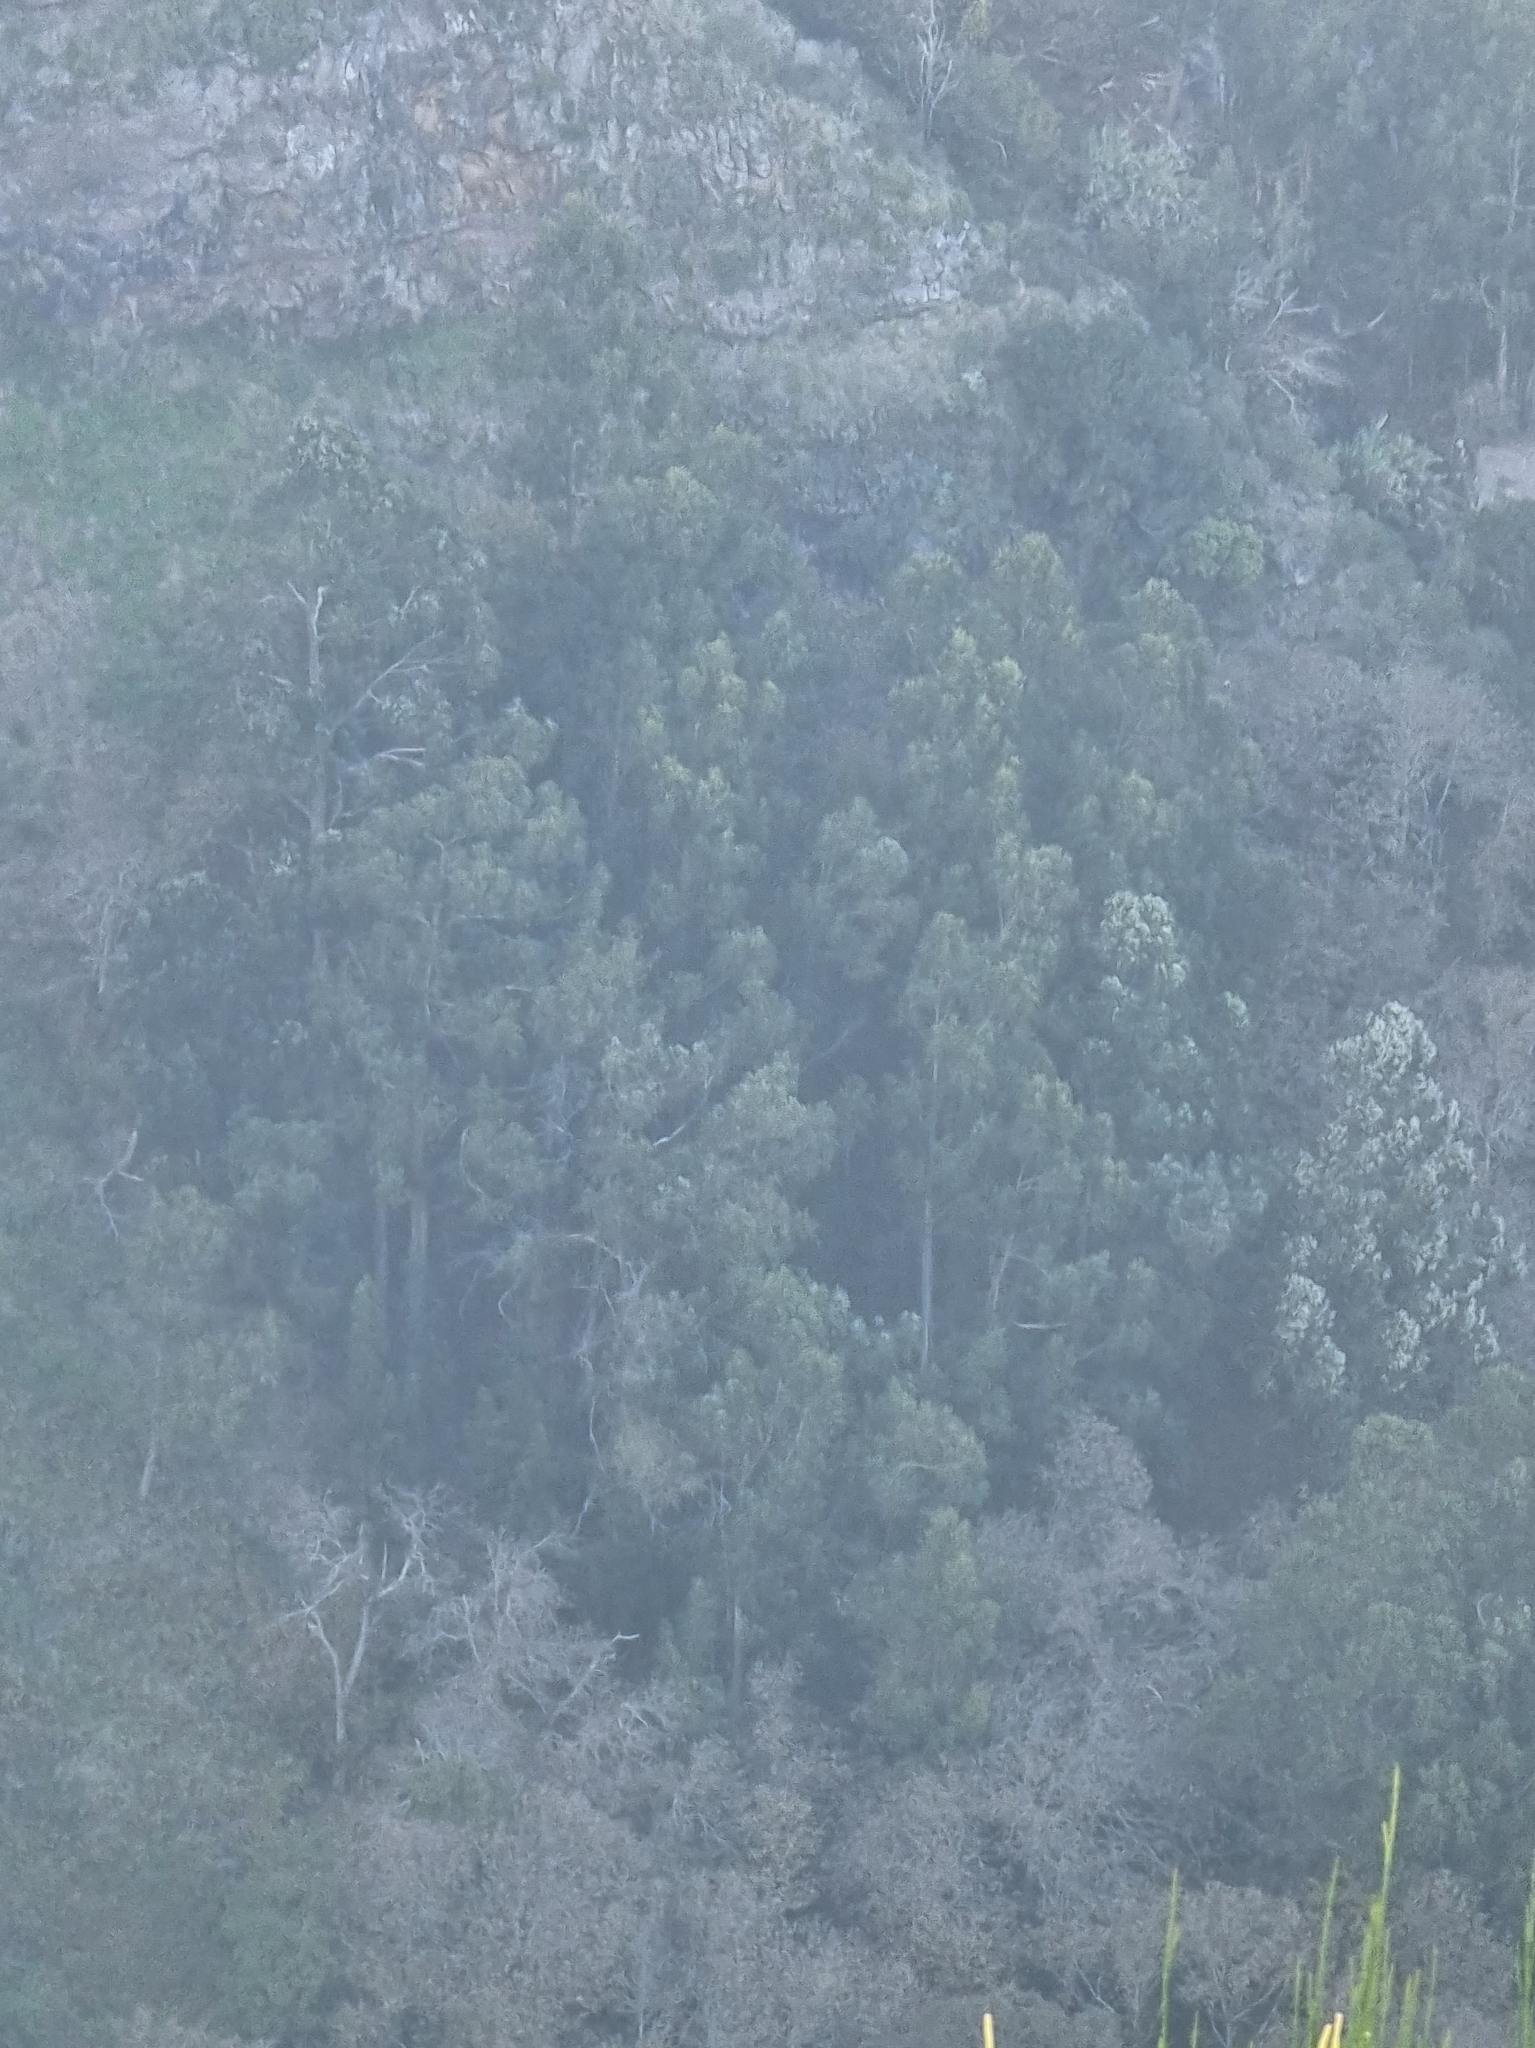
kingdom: Plantae
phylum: Tracheophyta
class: Magnoliopsida
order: Myrtales
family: Myrtaceae
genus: Eucalyptus
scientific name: Eucalyptus globulus
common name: Southern blue-gum
